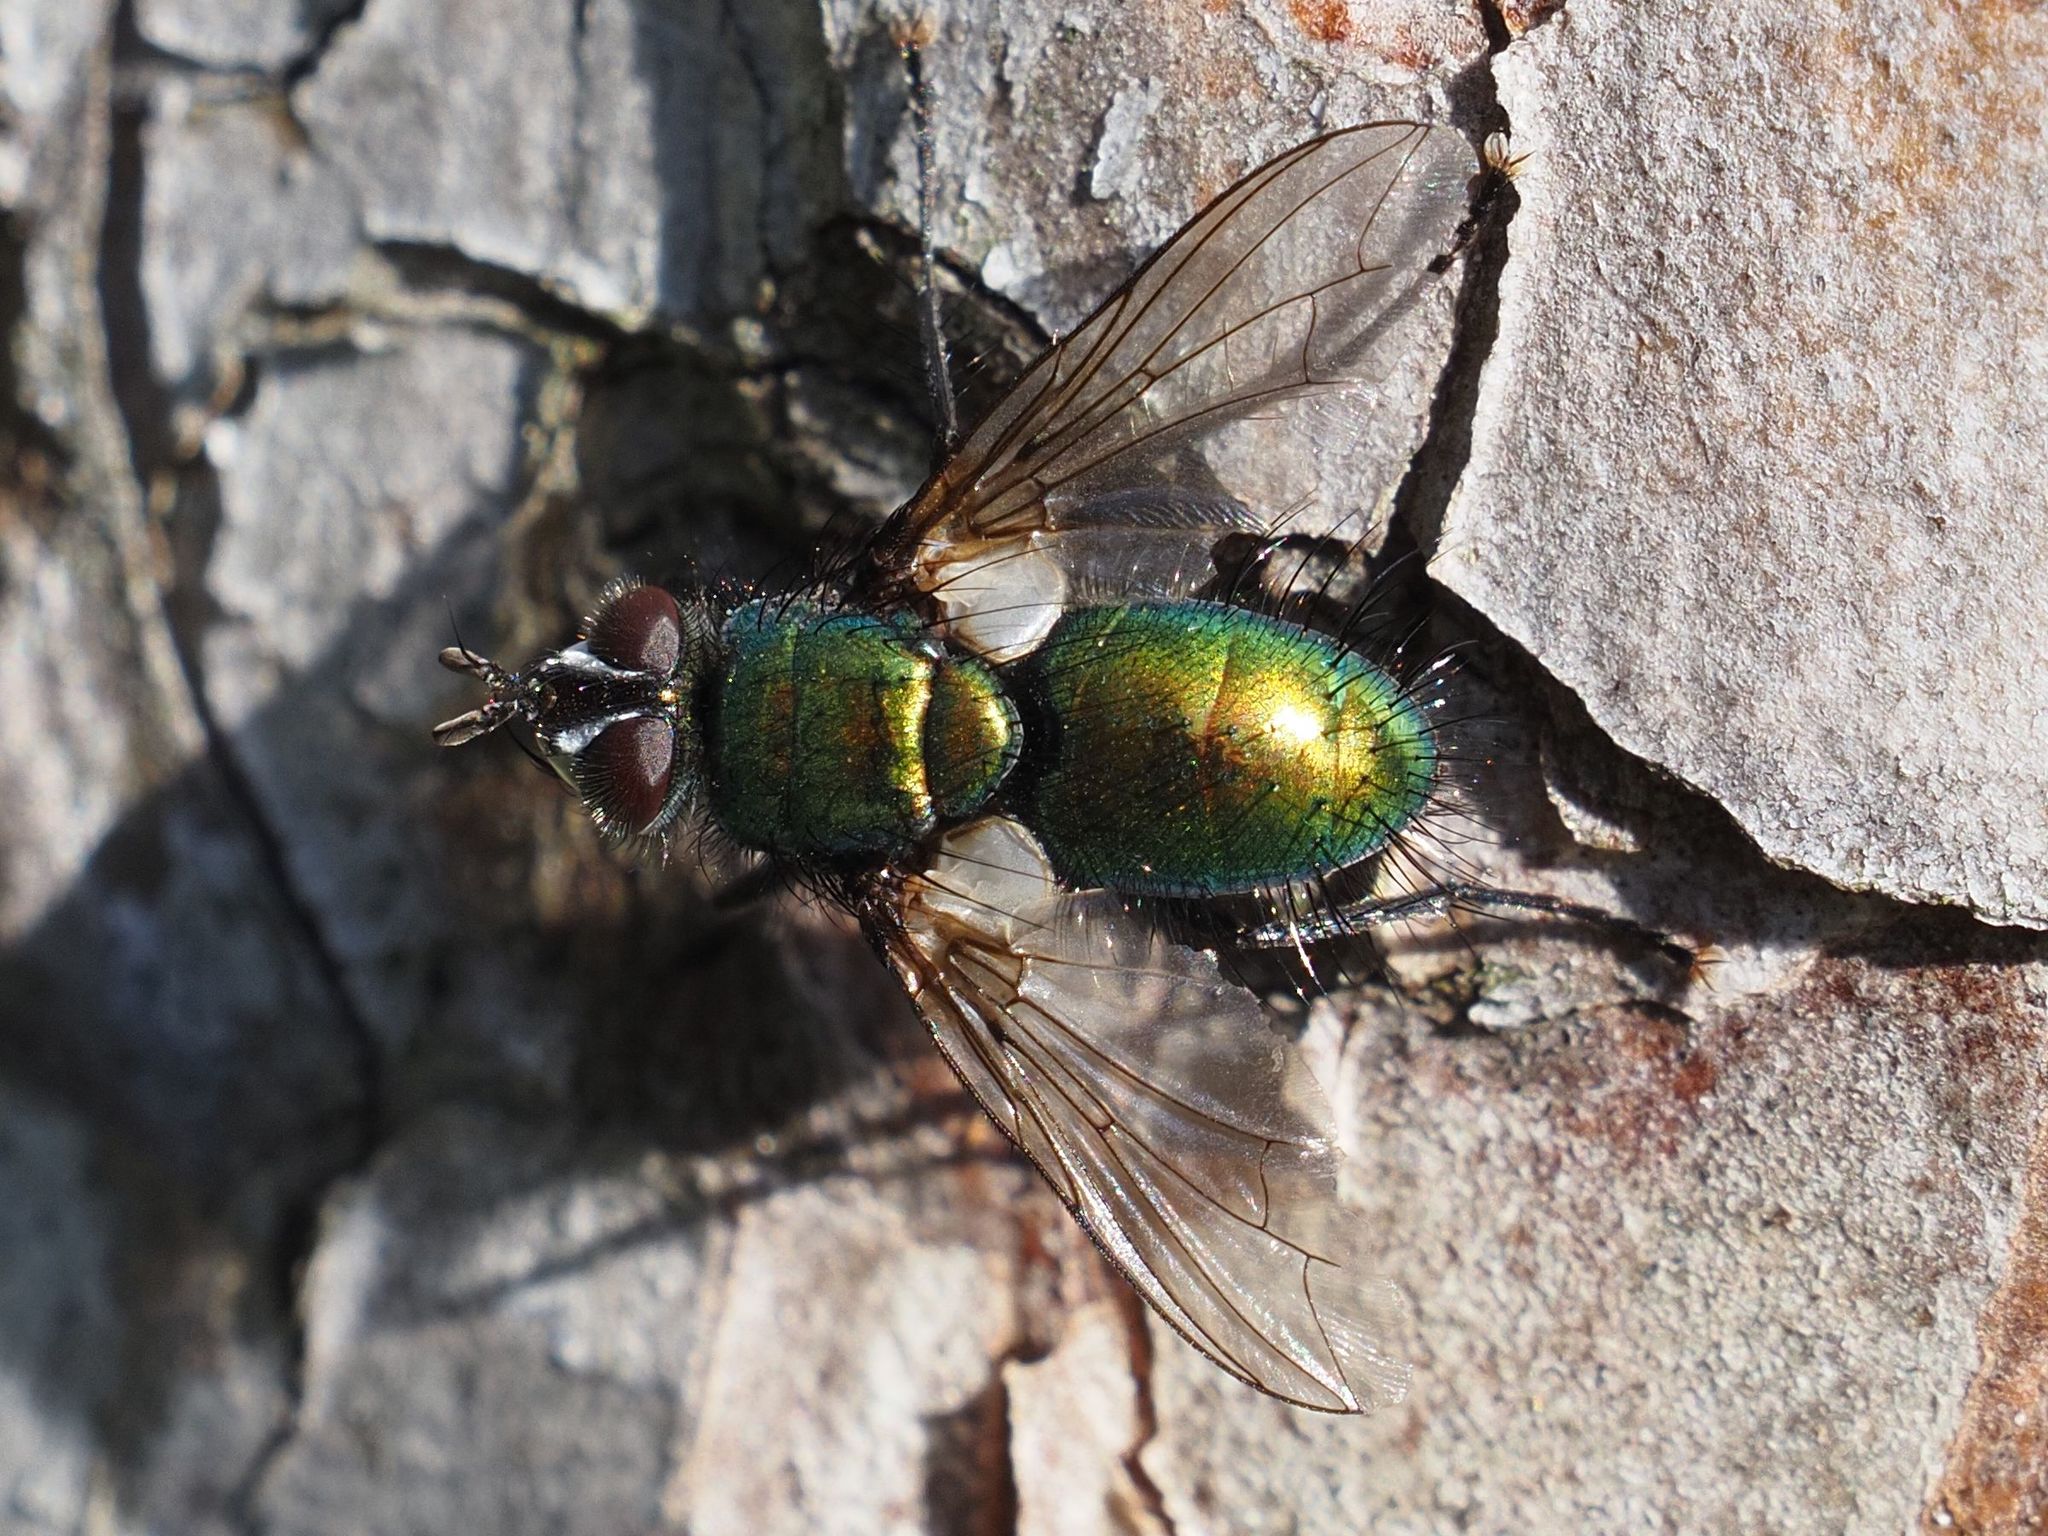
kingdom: Animalia
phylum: Arthropoda
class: Insecta
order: Diptera
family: Tachinidae
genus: Gymnocheta
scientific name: Gymnocheta viridis
